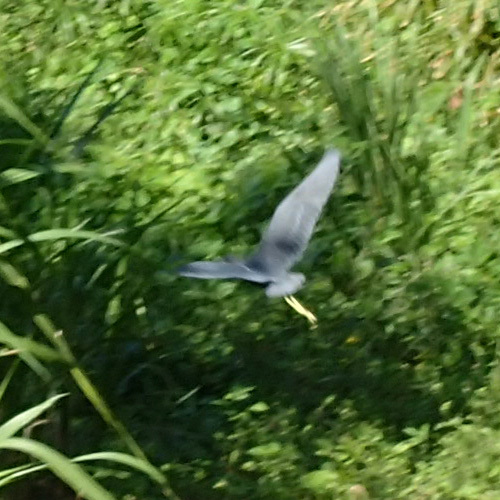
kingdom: Animalia
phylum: Chordata
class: Aves
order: Pelecaniformes
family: Ardeidae
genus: Egretta
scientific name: Egretta caerulea
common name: Little blue heron
